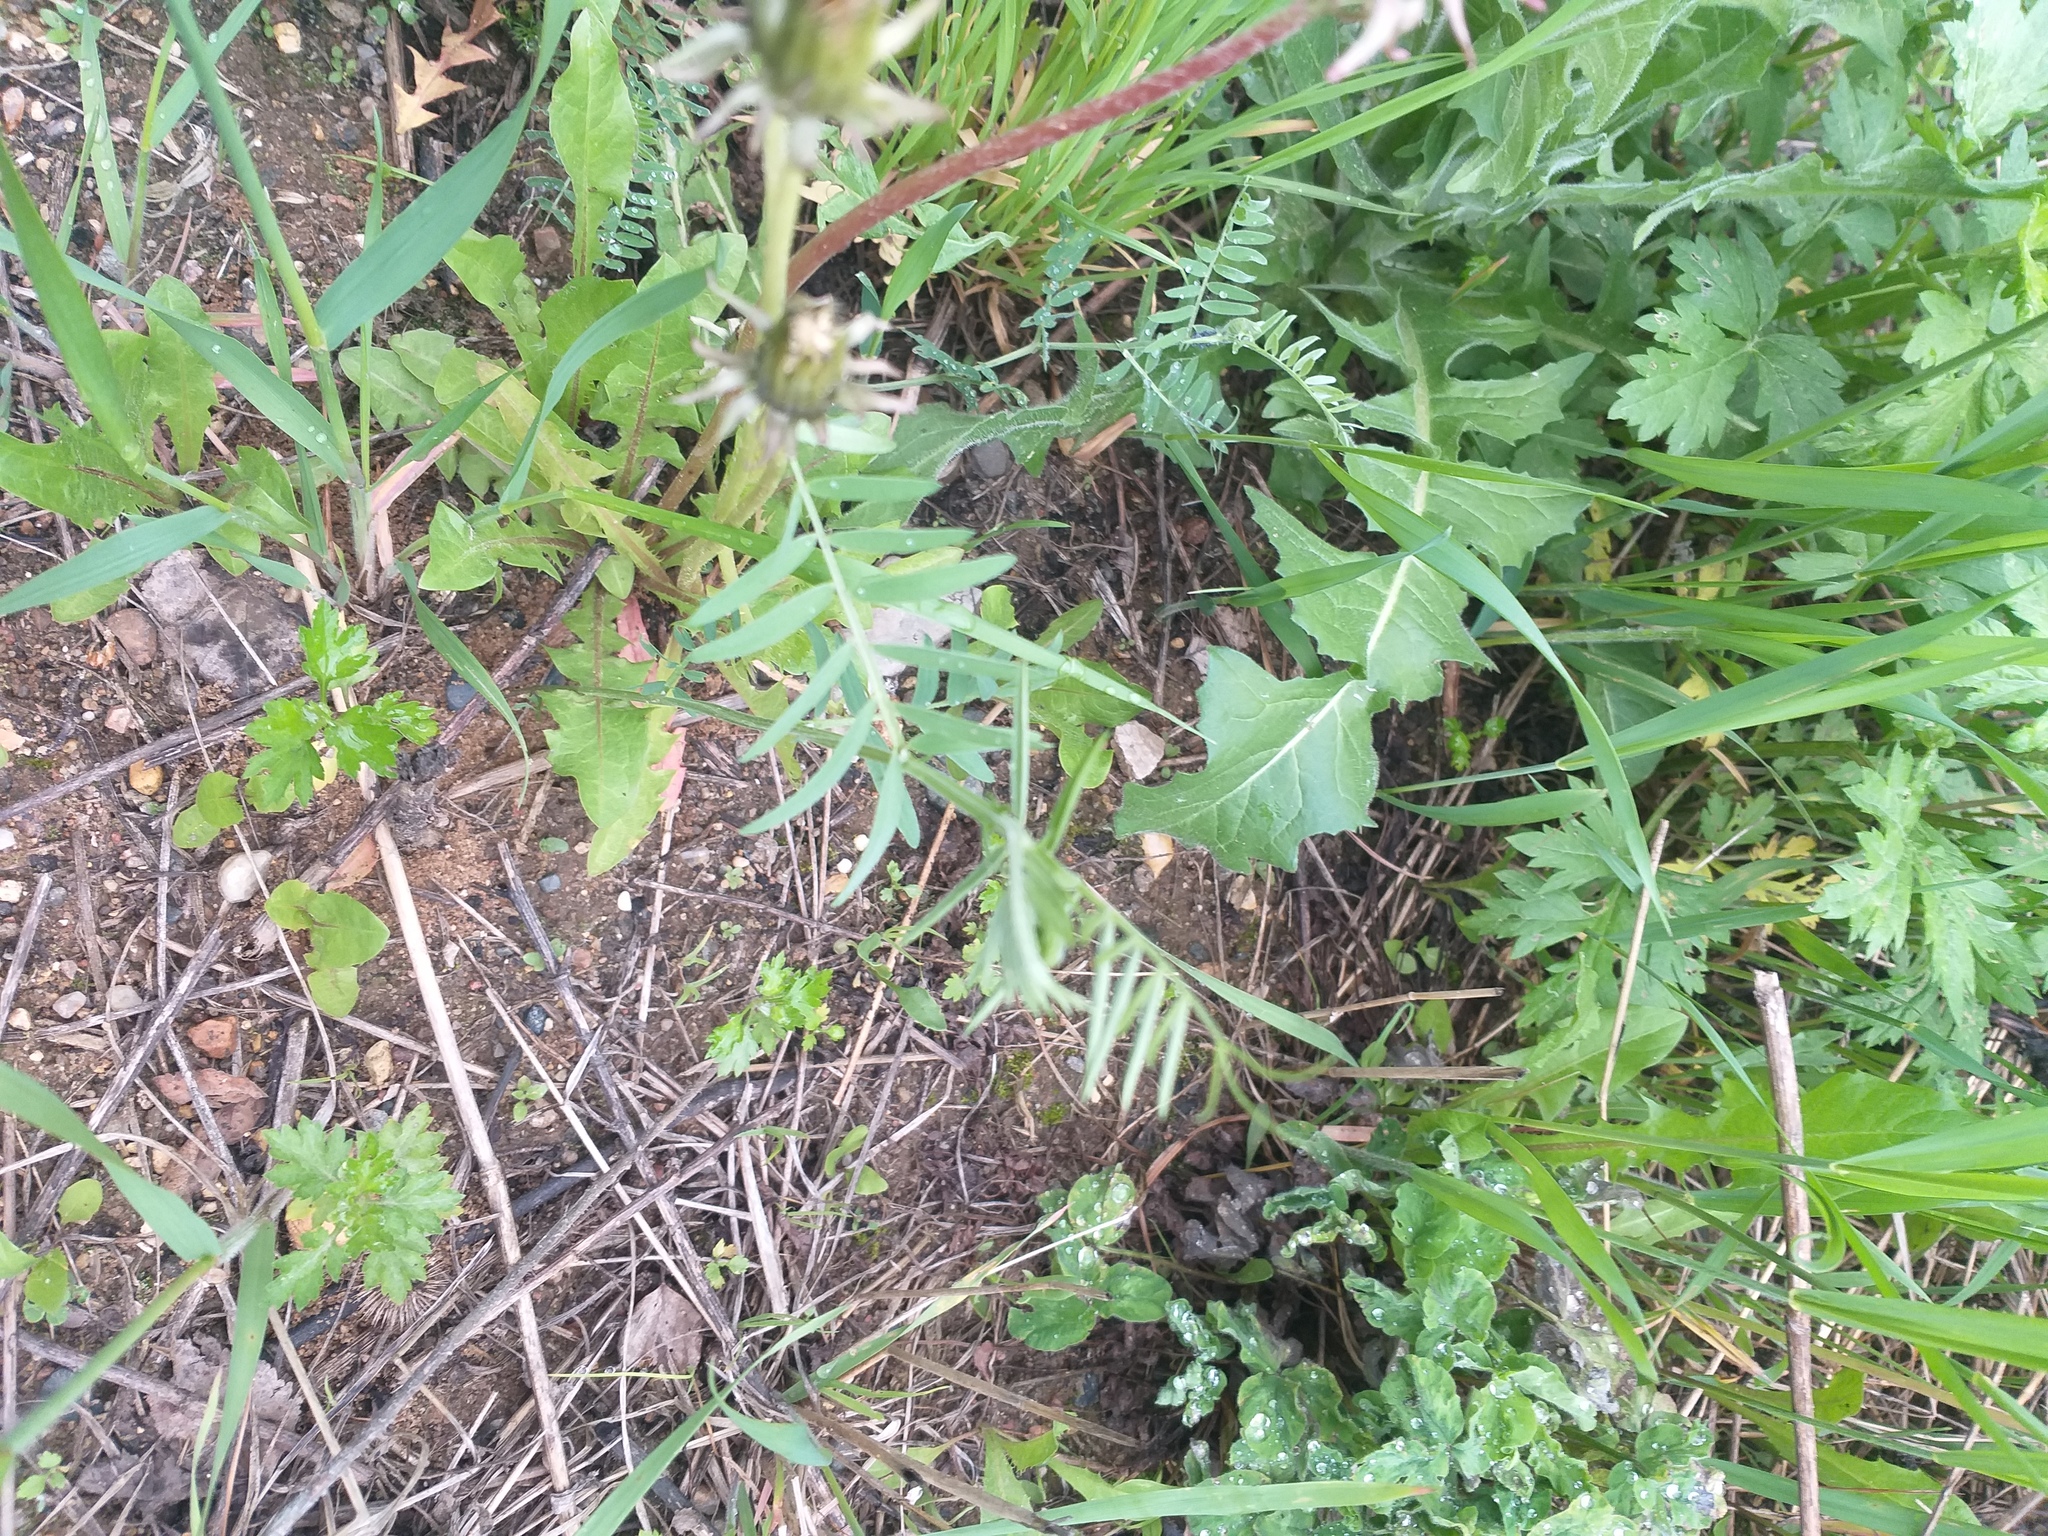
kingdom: Plantae
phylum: Tracheophyta
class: Magnoliopsida
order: Fabales
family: Fabaceae
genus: Vicia
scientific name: Vicia cracca
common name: Bird vetch
